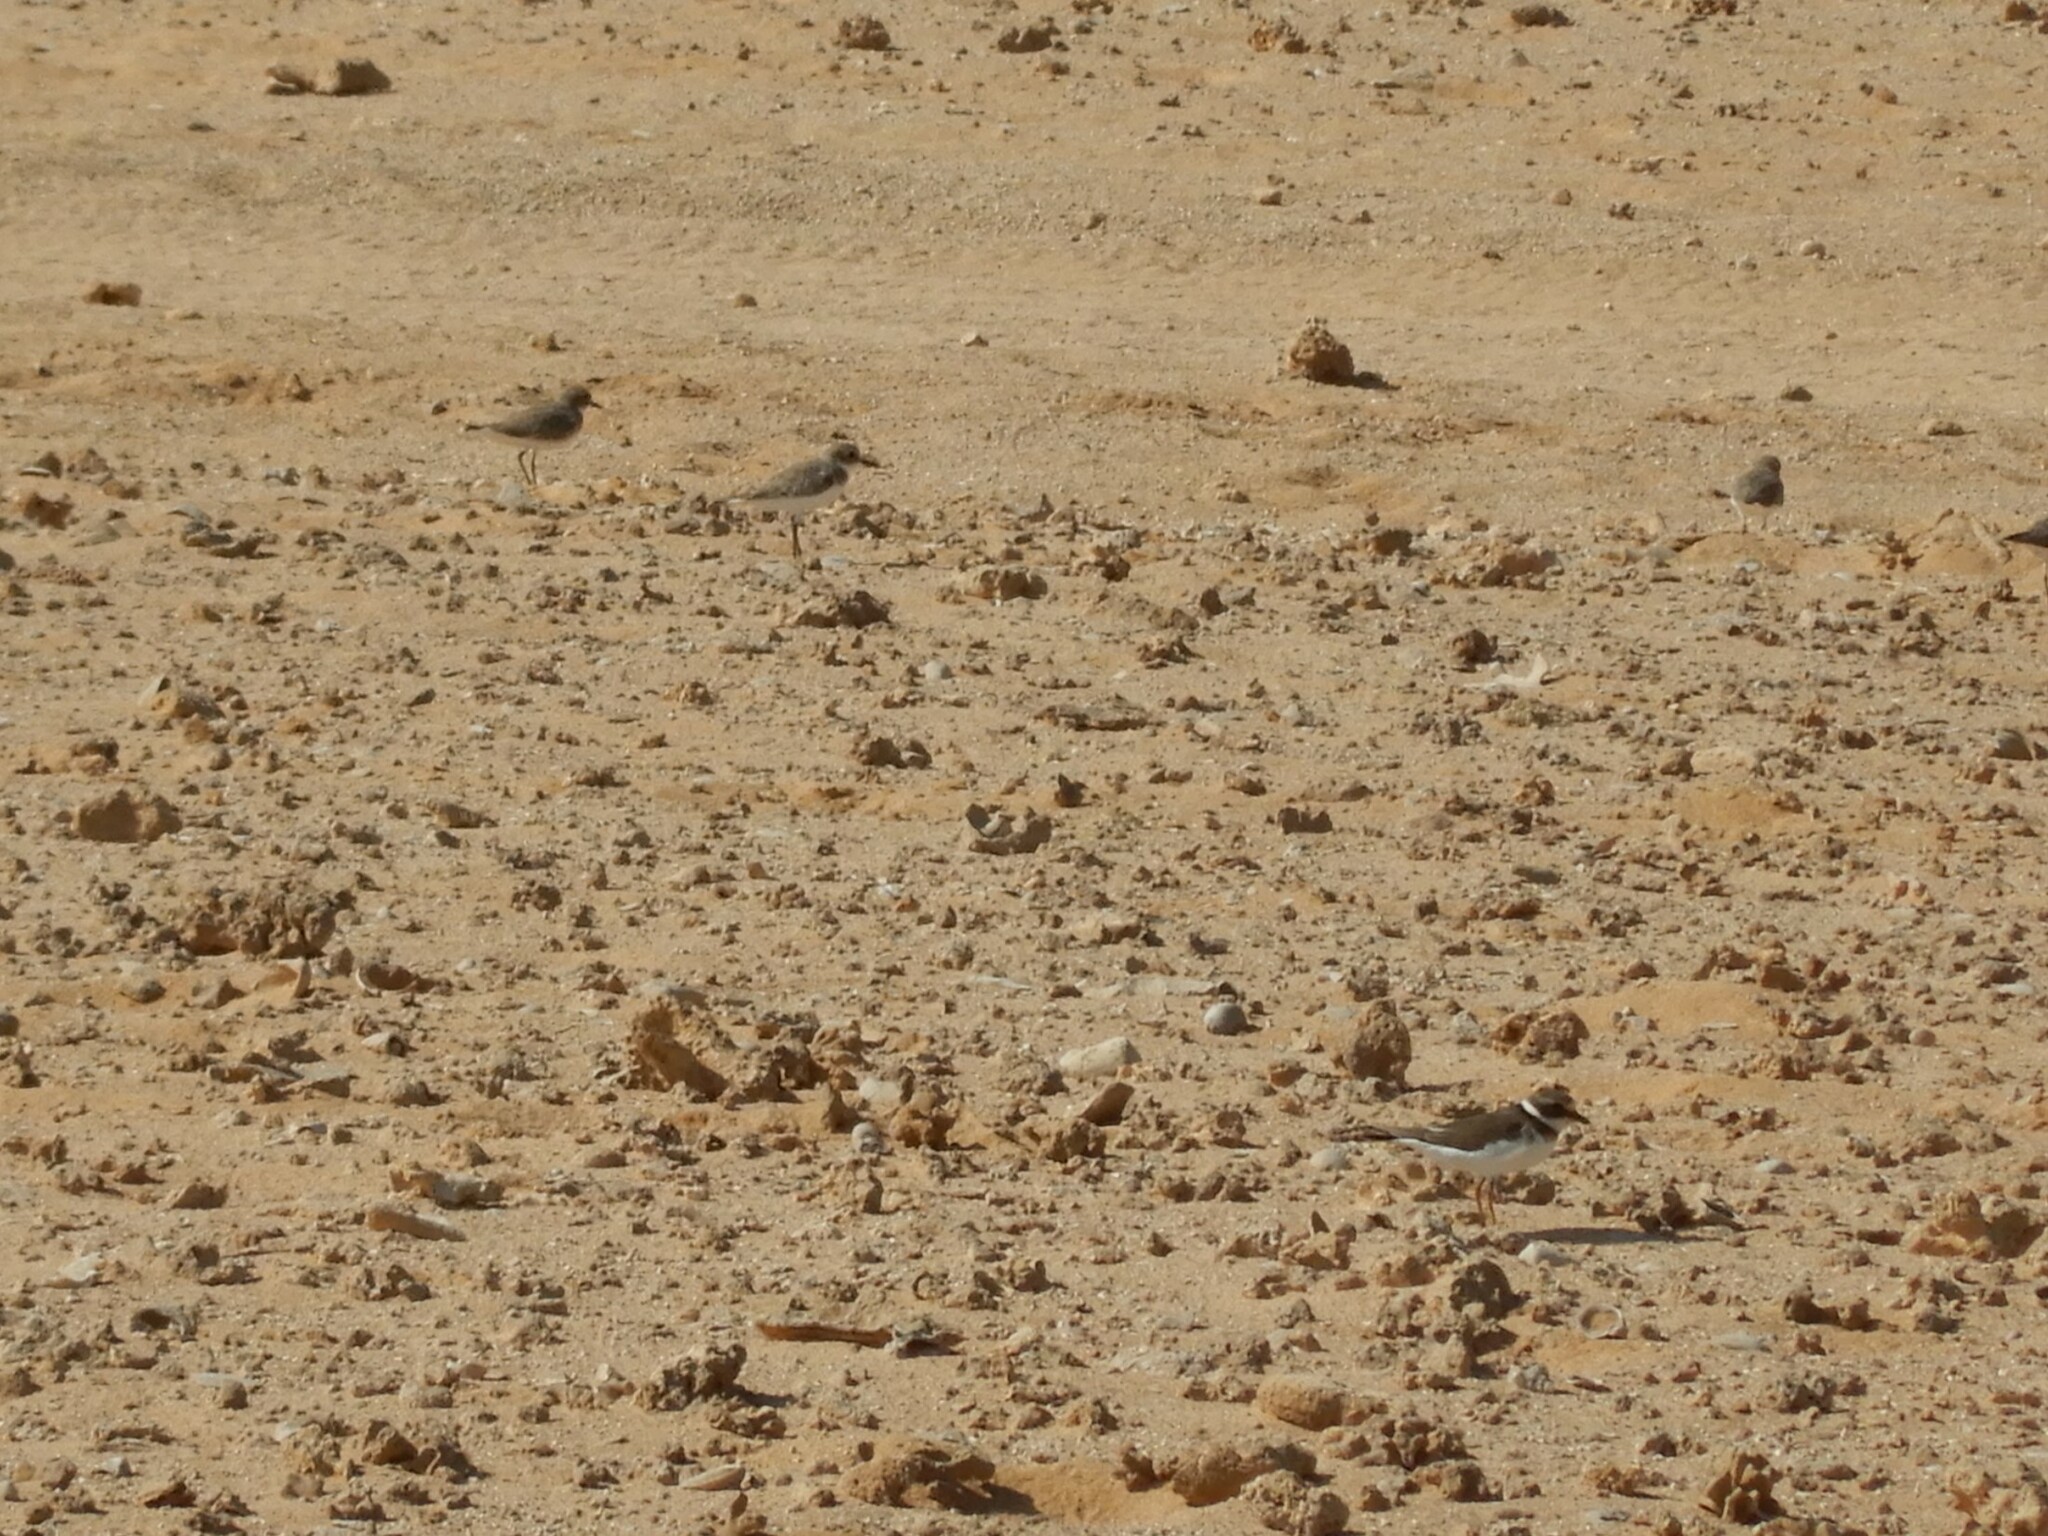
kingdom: Animalia
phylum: Chordata
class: Aves
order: Charadriiformes
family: Charadriidae
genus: Charadrius
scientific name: Charadrius hiaticula
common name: Common ringed plover
